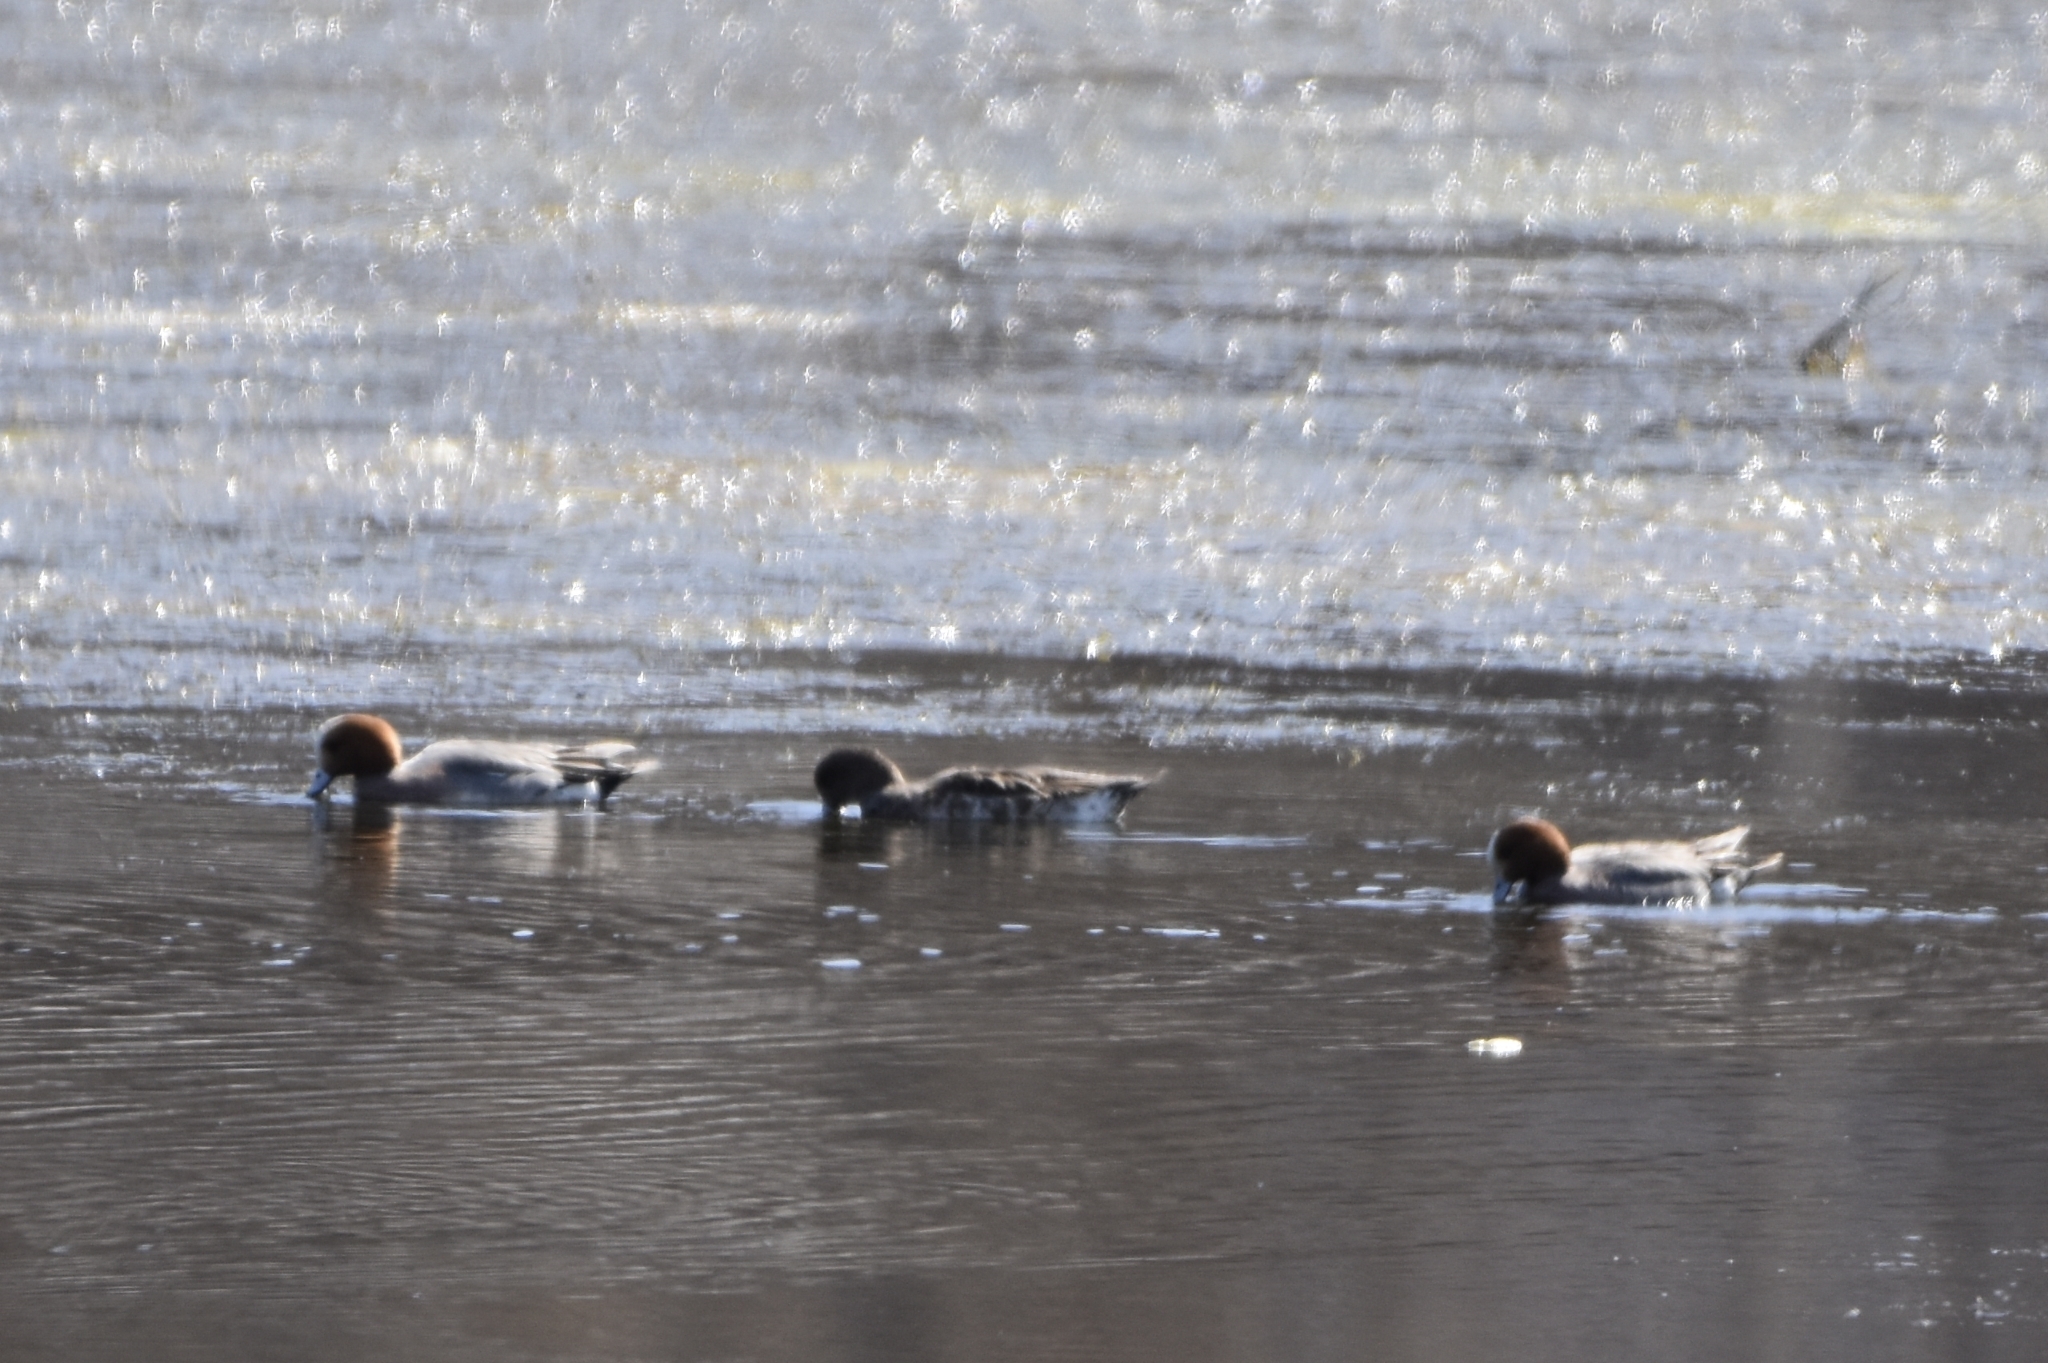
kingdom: Animalia
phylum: Chordata
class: Aves
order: Anseriformes
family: Anatidae
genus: Mareca
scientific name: Mareca penelope
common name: Eurasian wigeon
